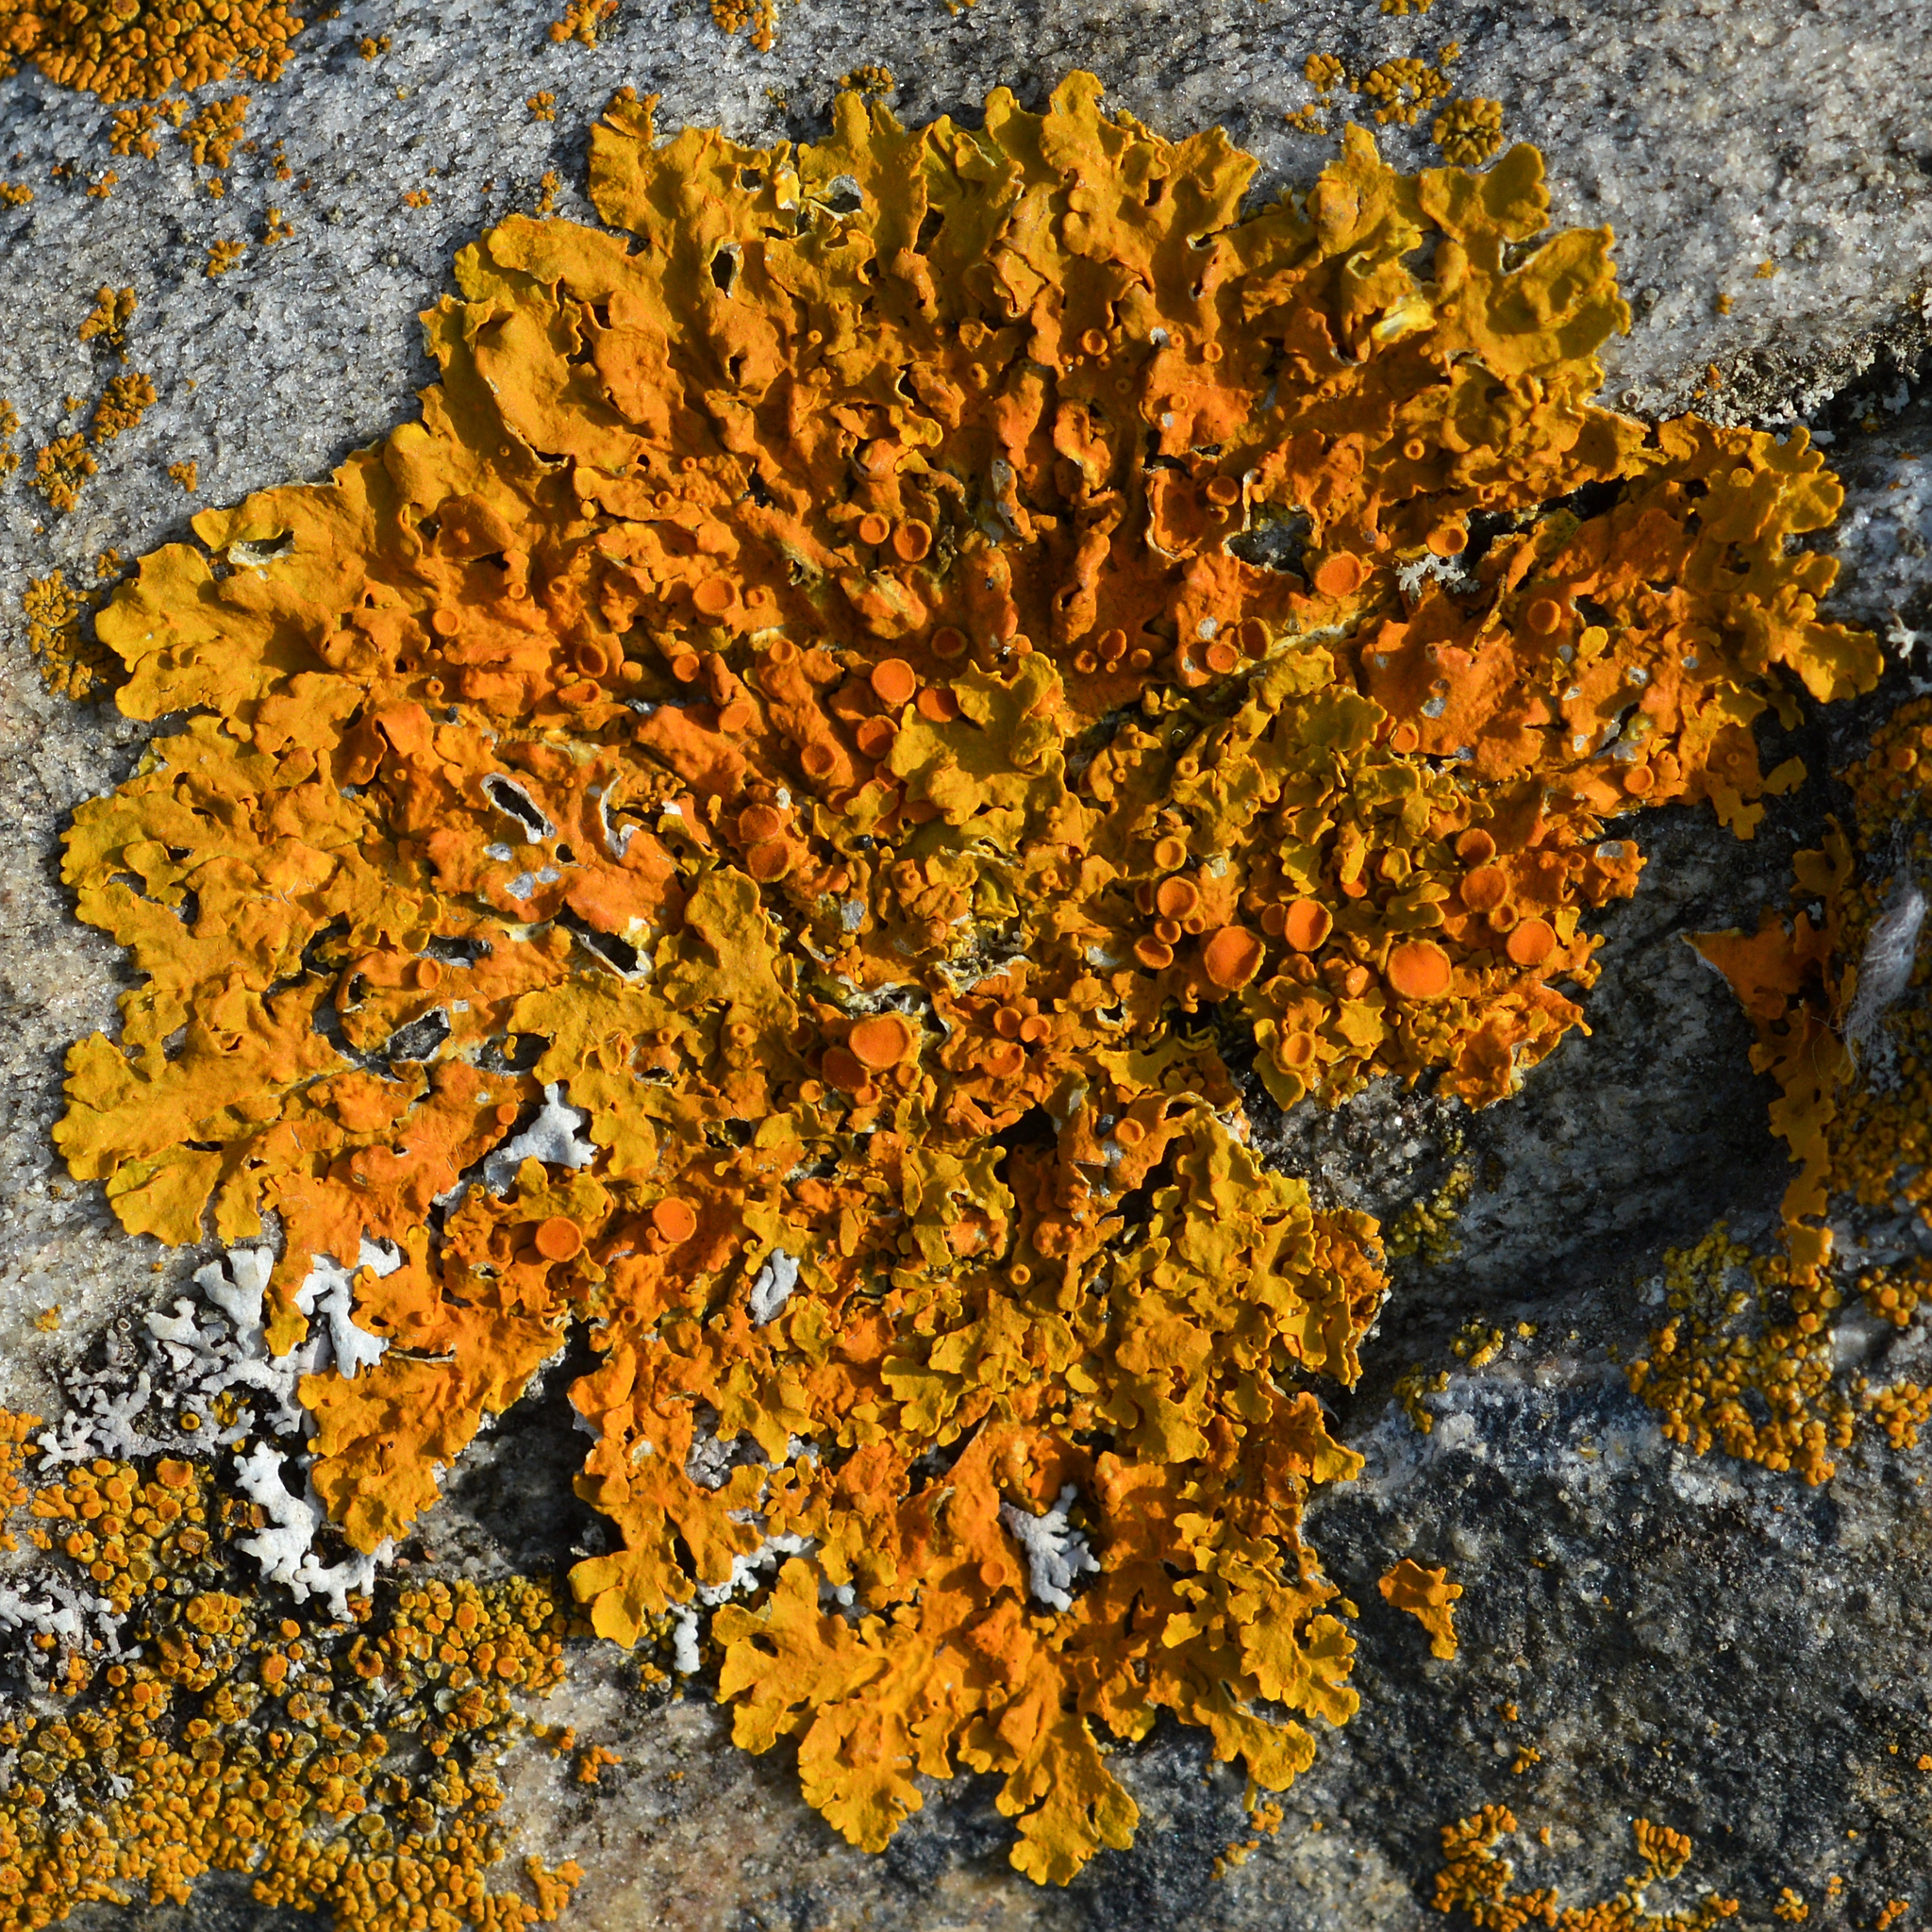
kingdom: Fungi
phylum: Ascomycota
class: Lecanoromycetes
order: Teloschistales
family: Teloschistaceae
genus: Xanthoria
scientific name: Xanthoria parietina
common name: Common orange lichen
